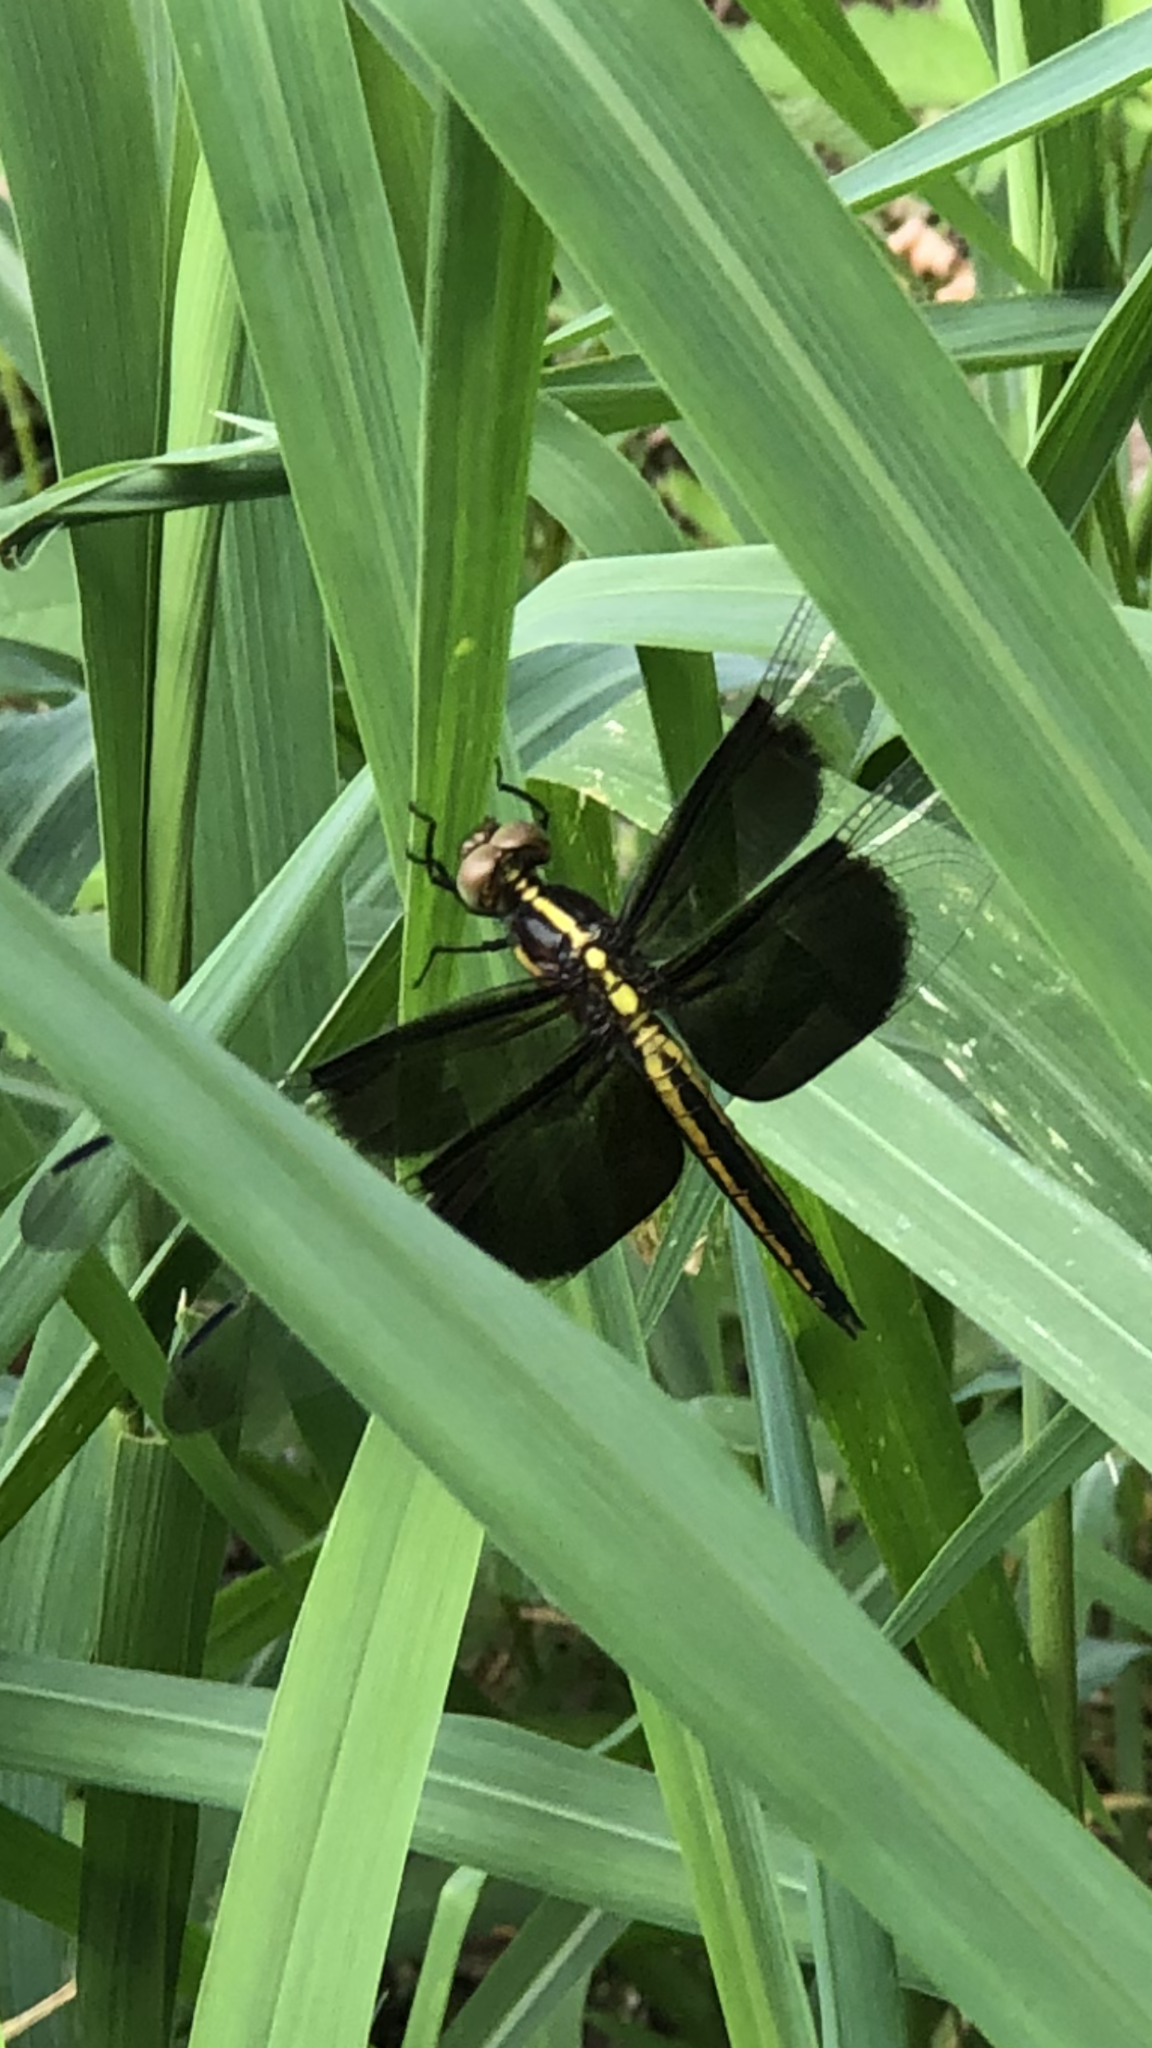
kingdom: Animalia
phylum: Arthropoda
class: Insecta
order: Odonata
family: Libellulidae
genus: Libellula
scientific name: Libellula luctuosa
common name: Widow skimmer
